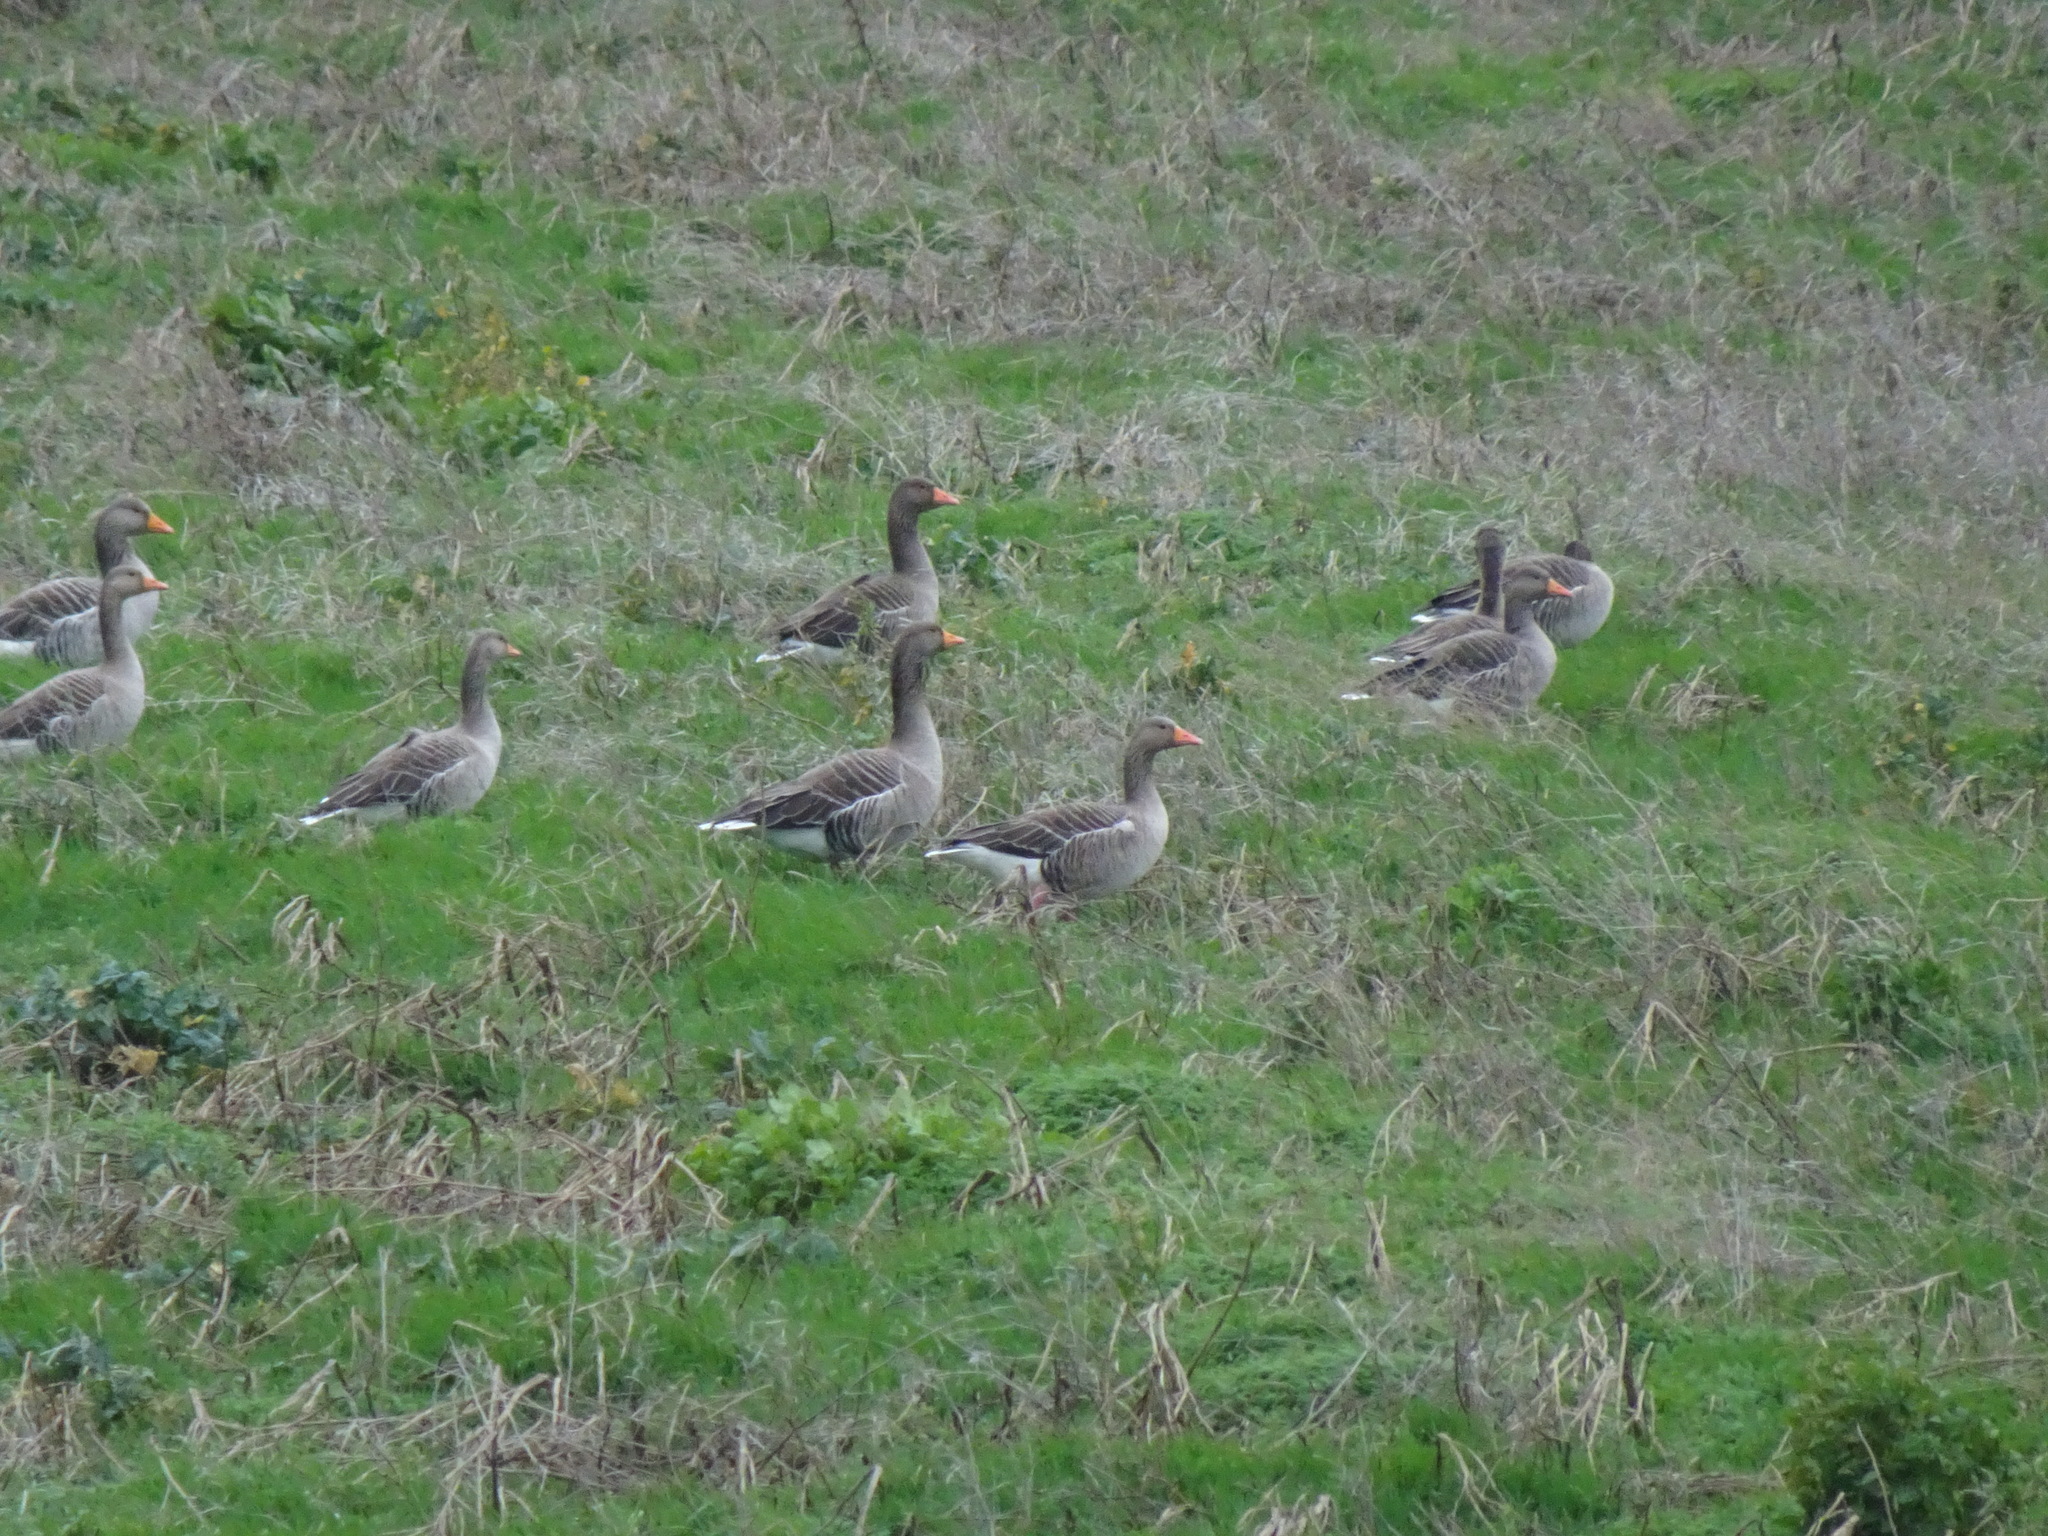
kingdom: Animalia
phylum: Chordata
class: Aves
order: Anseriformes
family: Anatidae
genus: Anser
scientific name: Anser anser
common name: Greylag goose
